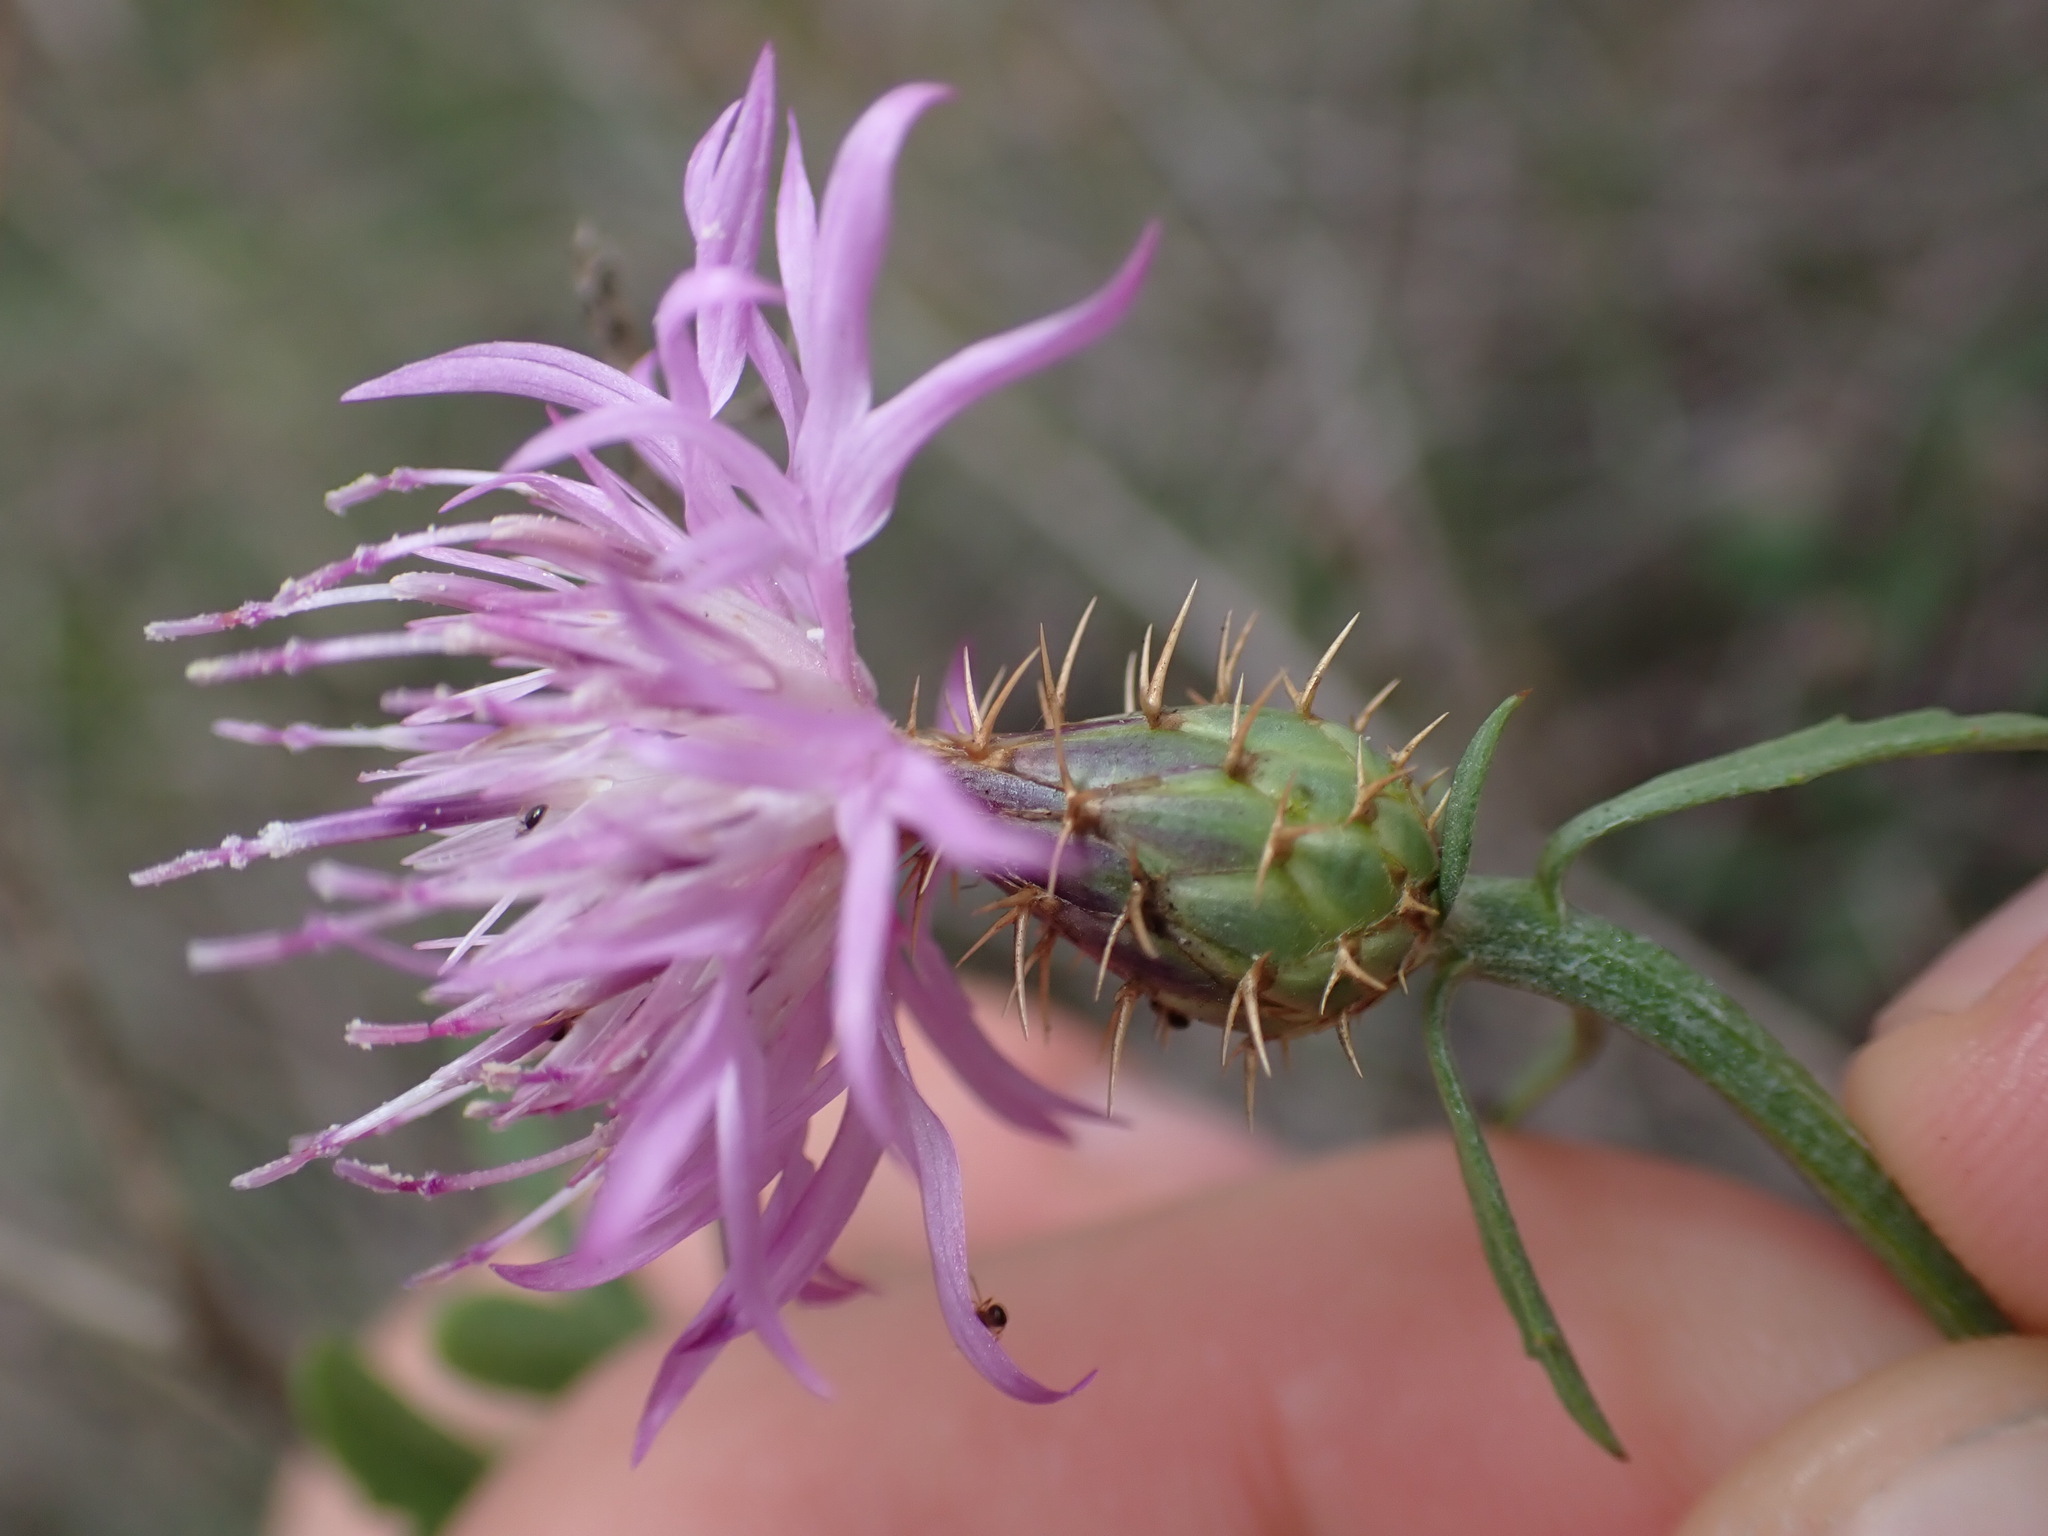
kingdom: Plantae
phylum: Tracheophyta
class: Magnoliopsida
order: Asterales
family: Asteraceae
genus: Centaurea
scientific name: Centaurea aspera
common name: Rough star-thistle
